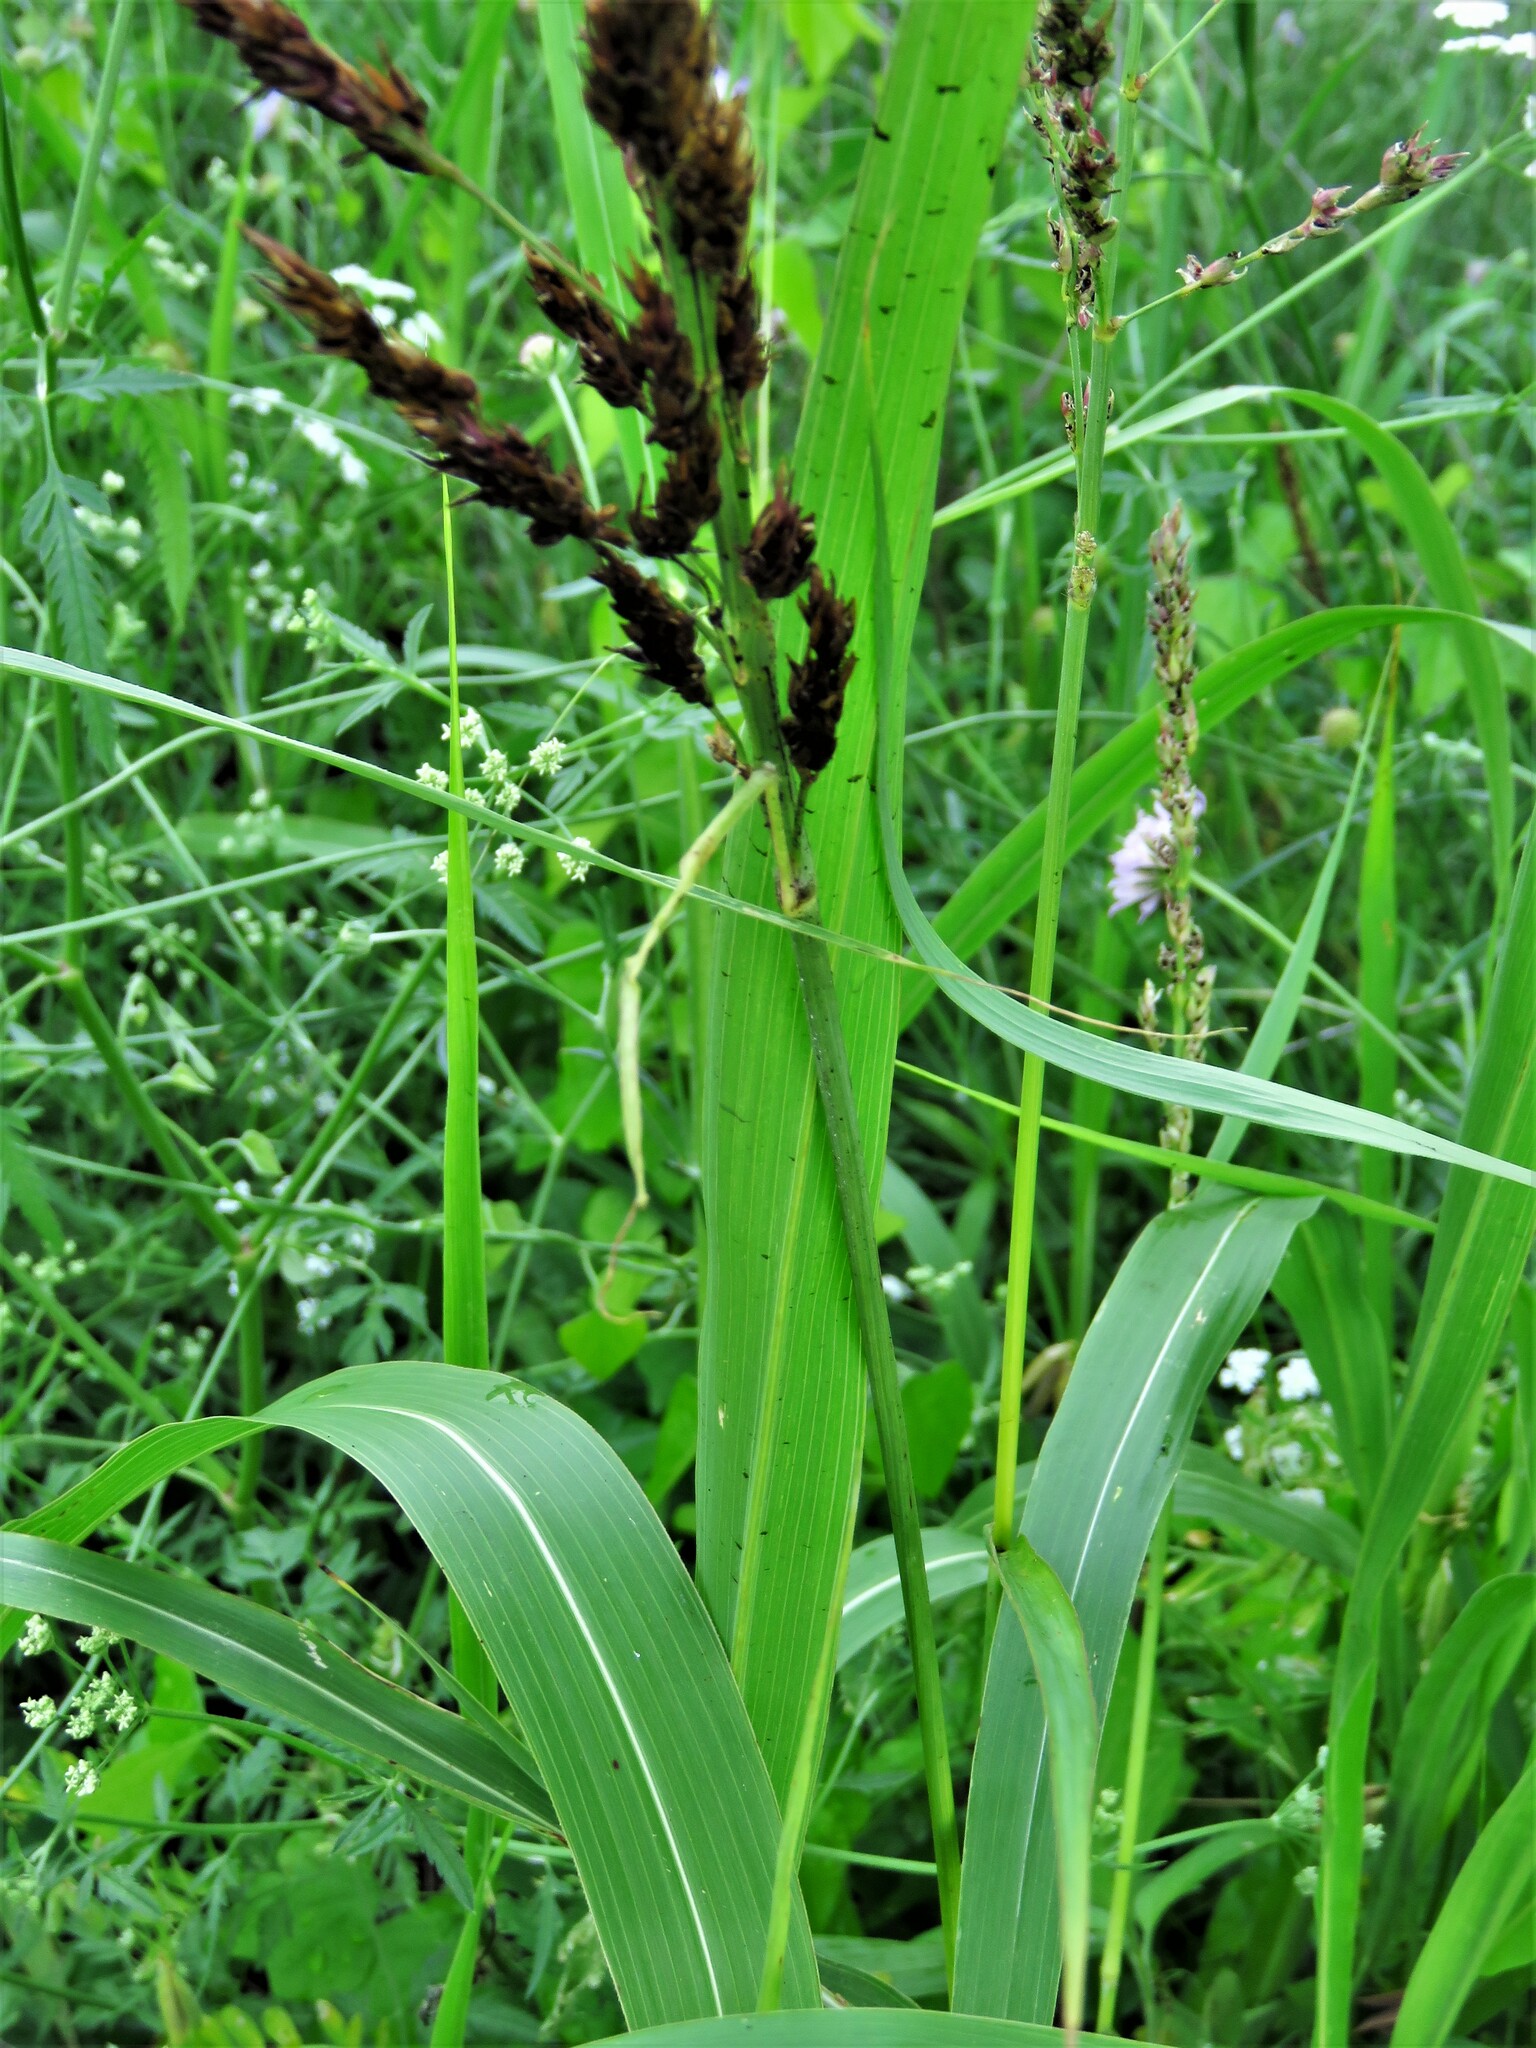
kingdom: Plantae
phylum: Tracheophyta
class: Liliopsida
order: Poales
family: Poaceae
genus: Sorghum
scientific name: Sorghum halepense
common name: Johnson-grass
